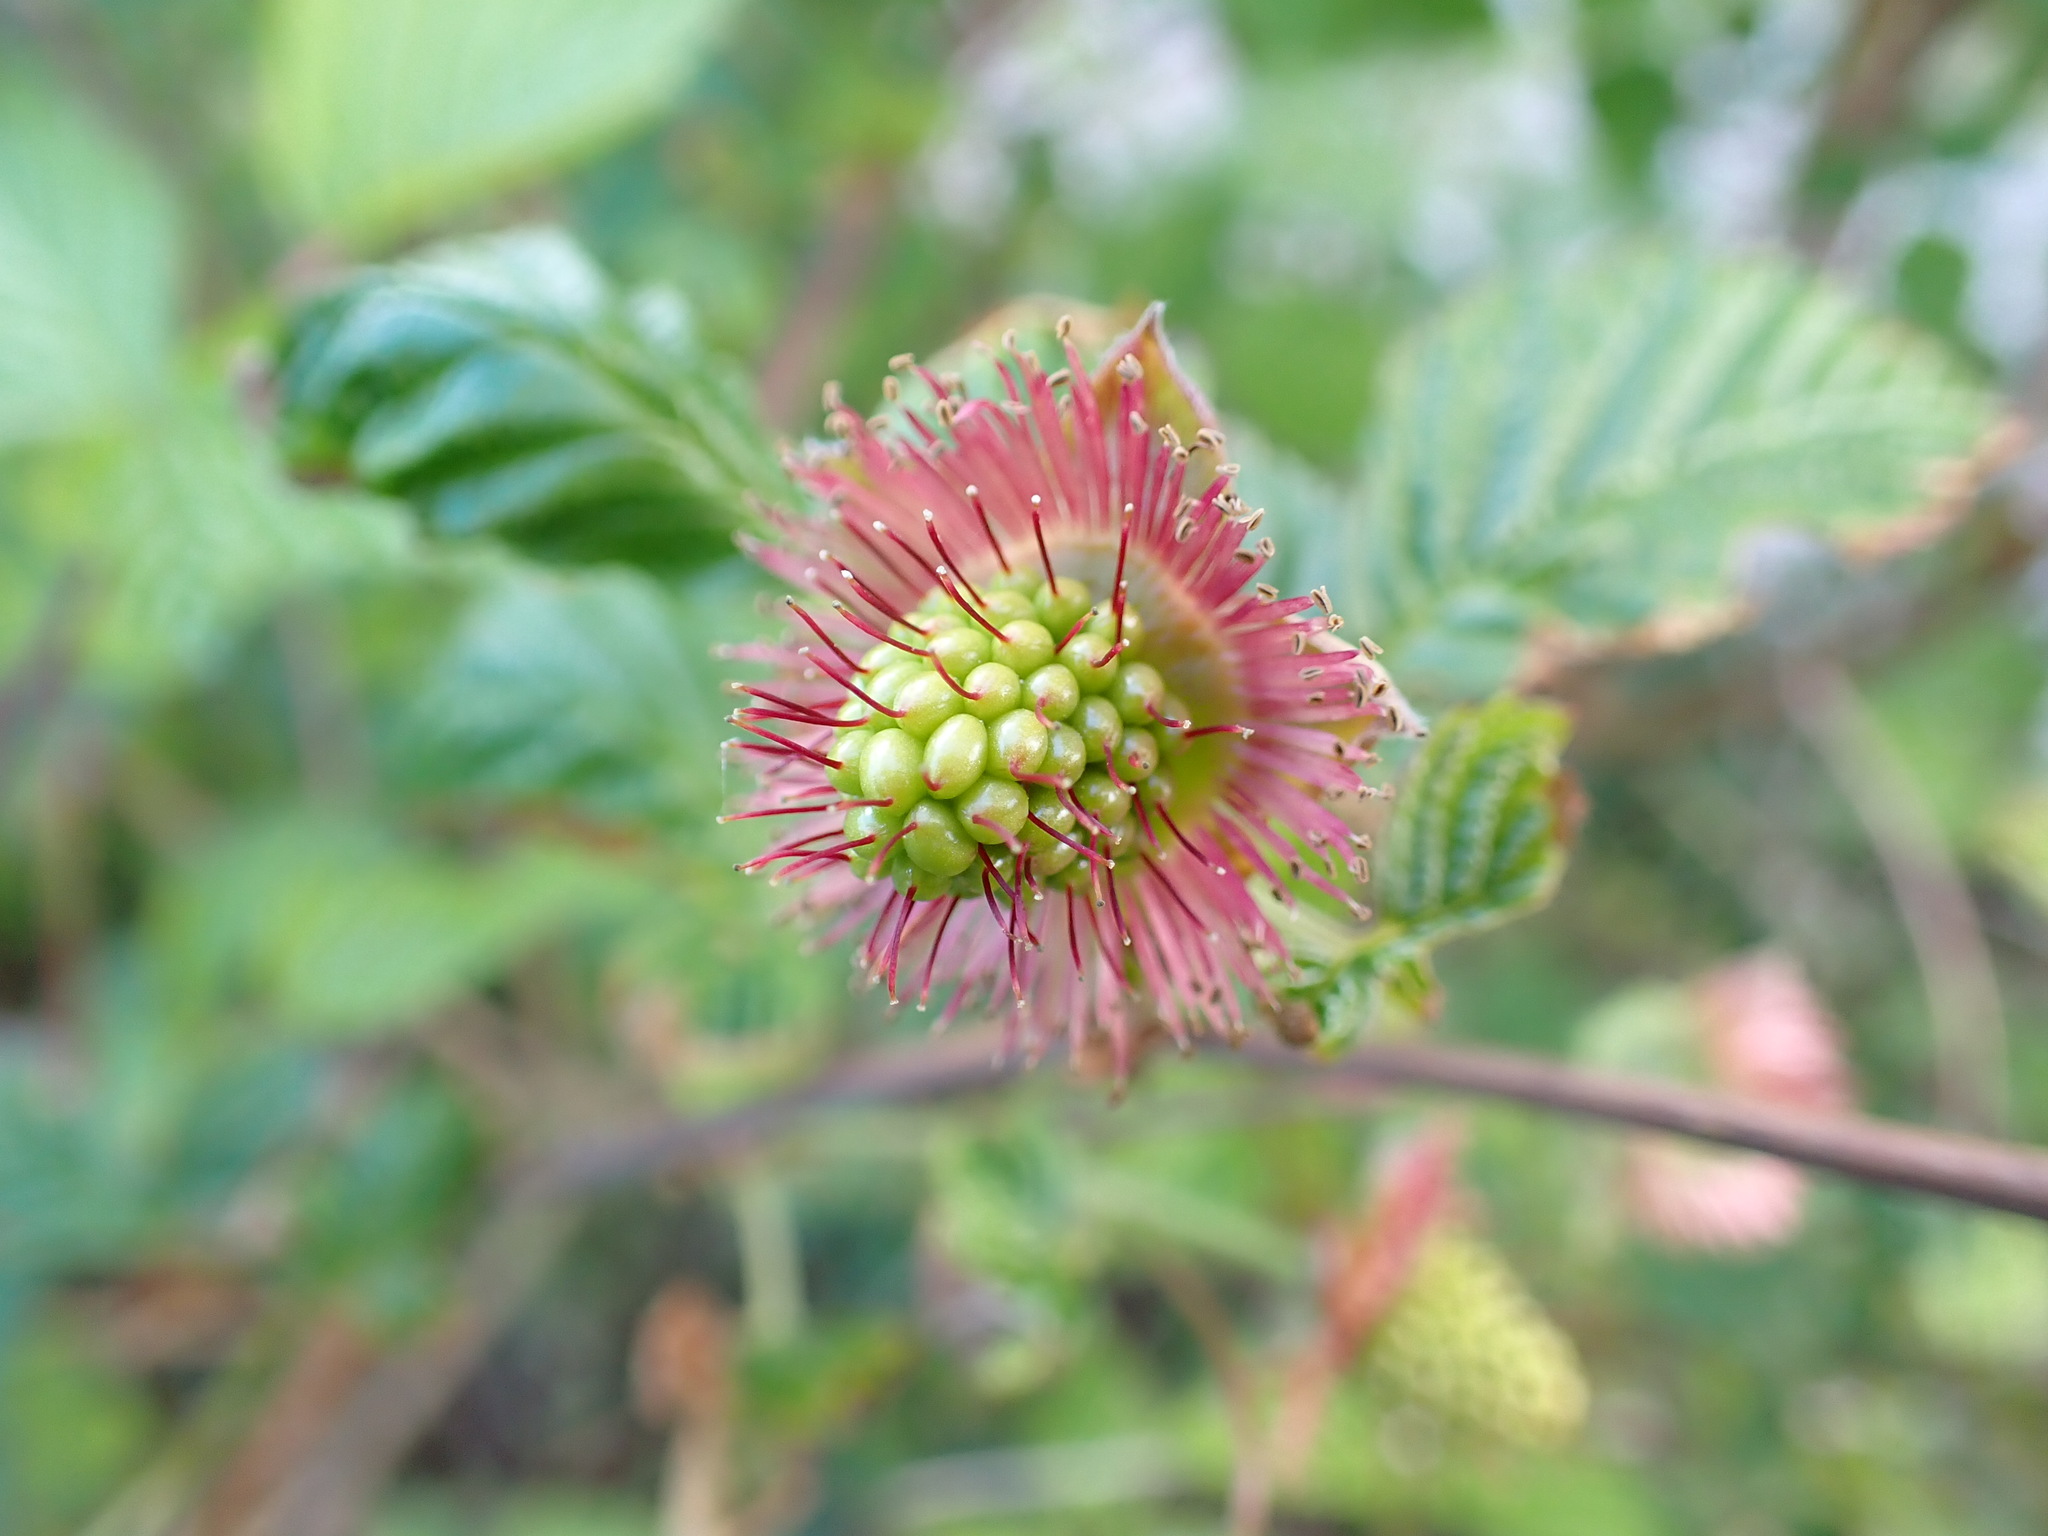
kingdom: Plantae
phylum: Tracheophyta
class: Magnoliopsida
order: Rosales
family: Rosaceae
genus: Rubus
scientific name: Rubus spectabilis
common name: Salmonberry
